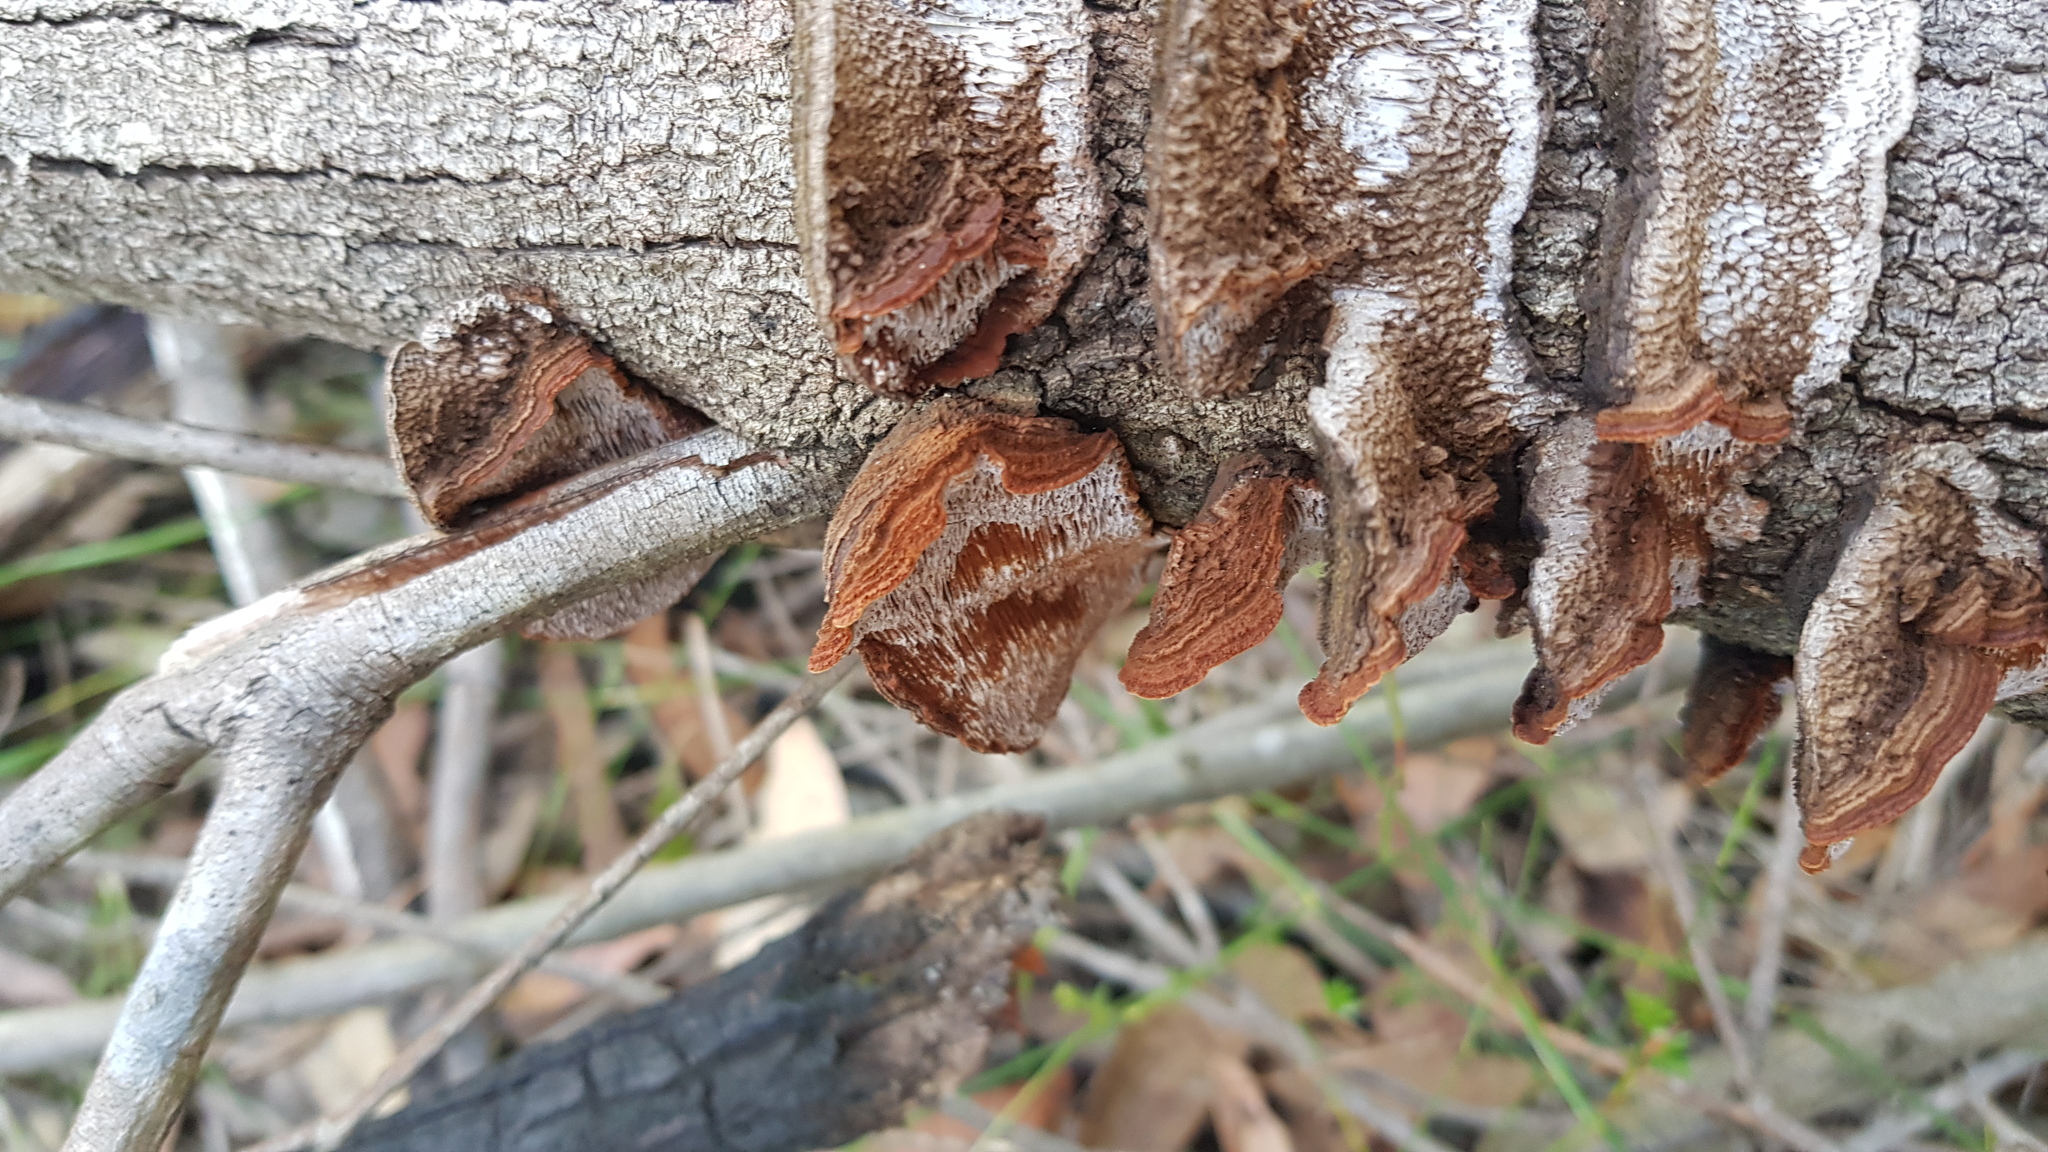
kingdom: Fungi
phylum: Basidiomycota
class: Agaricomycetes
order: Polyporales
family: Polyporaceae
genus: Phaeotrametes
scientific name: Phaeotrametes decipiens
